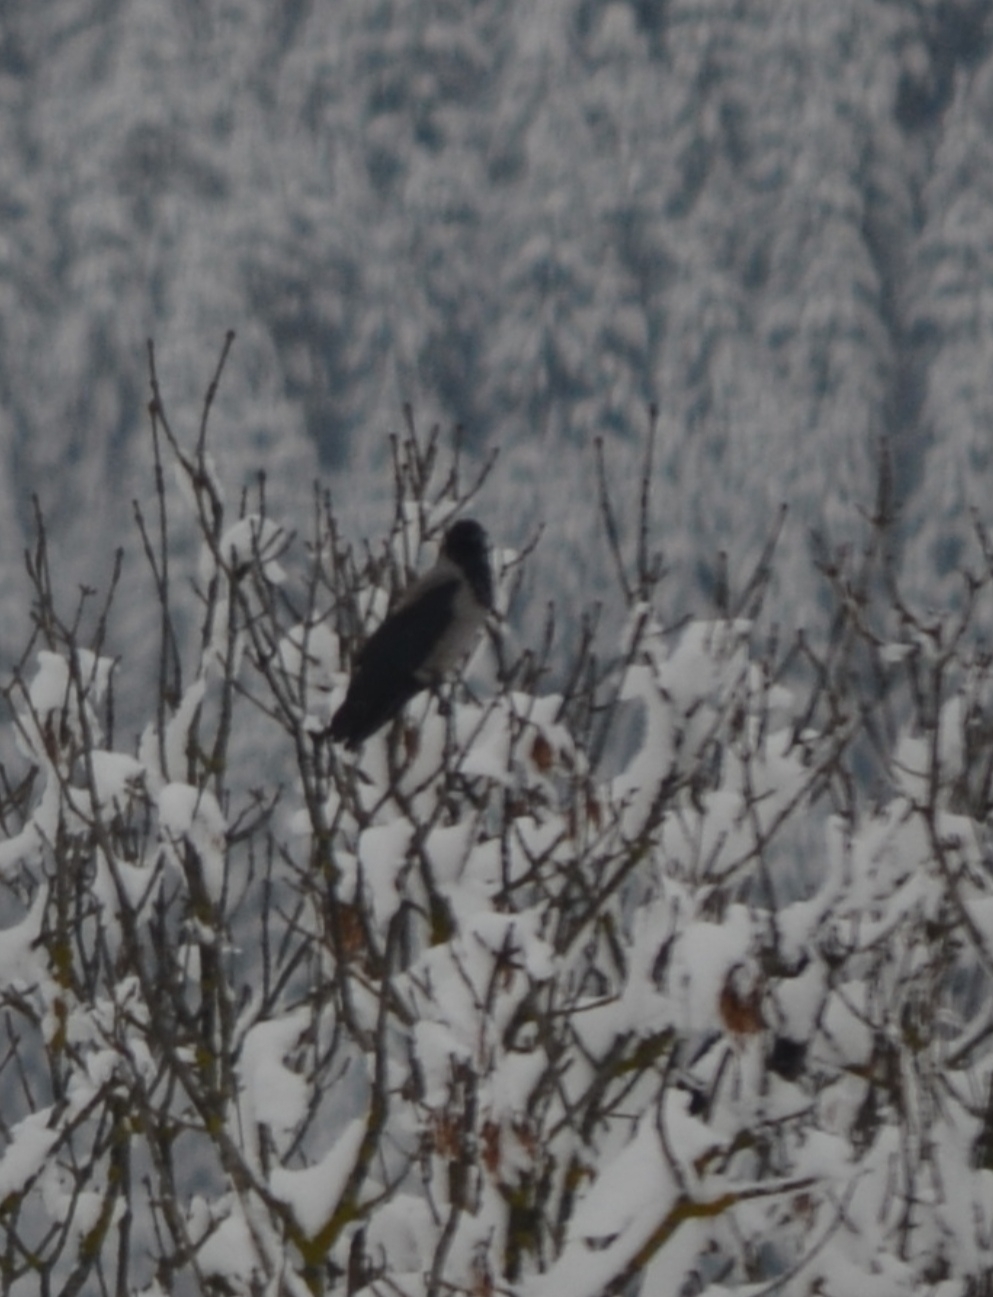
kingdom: Animalia
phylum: Chordata
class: Aves
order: Passeriformes
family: Corvidae
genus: Corvus
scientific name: Corvus cornix
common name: Hooded crow
